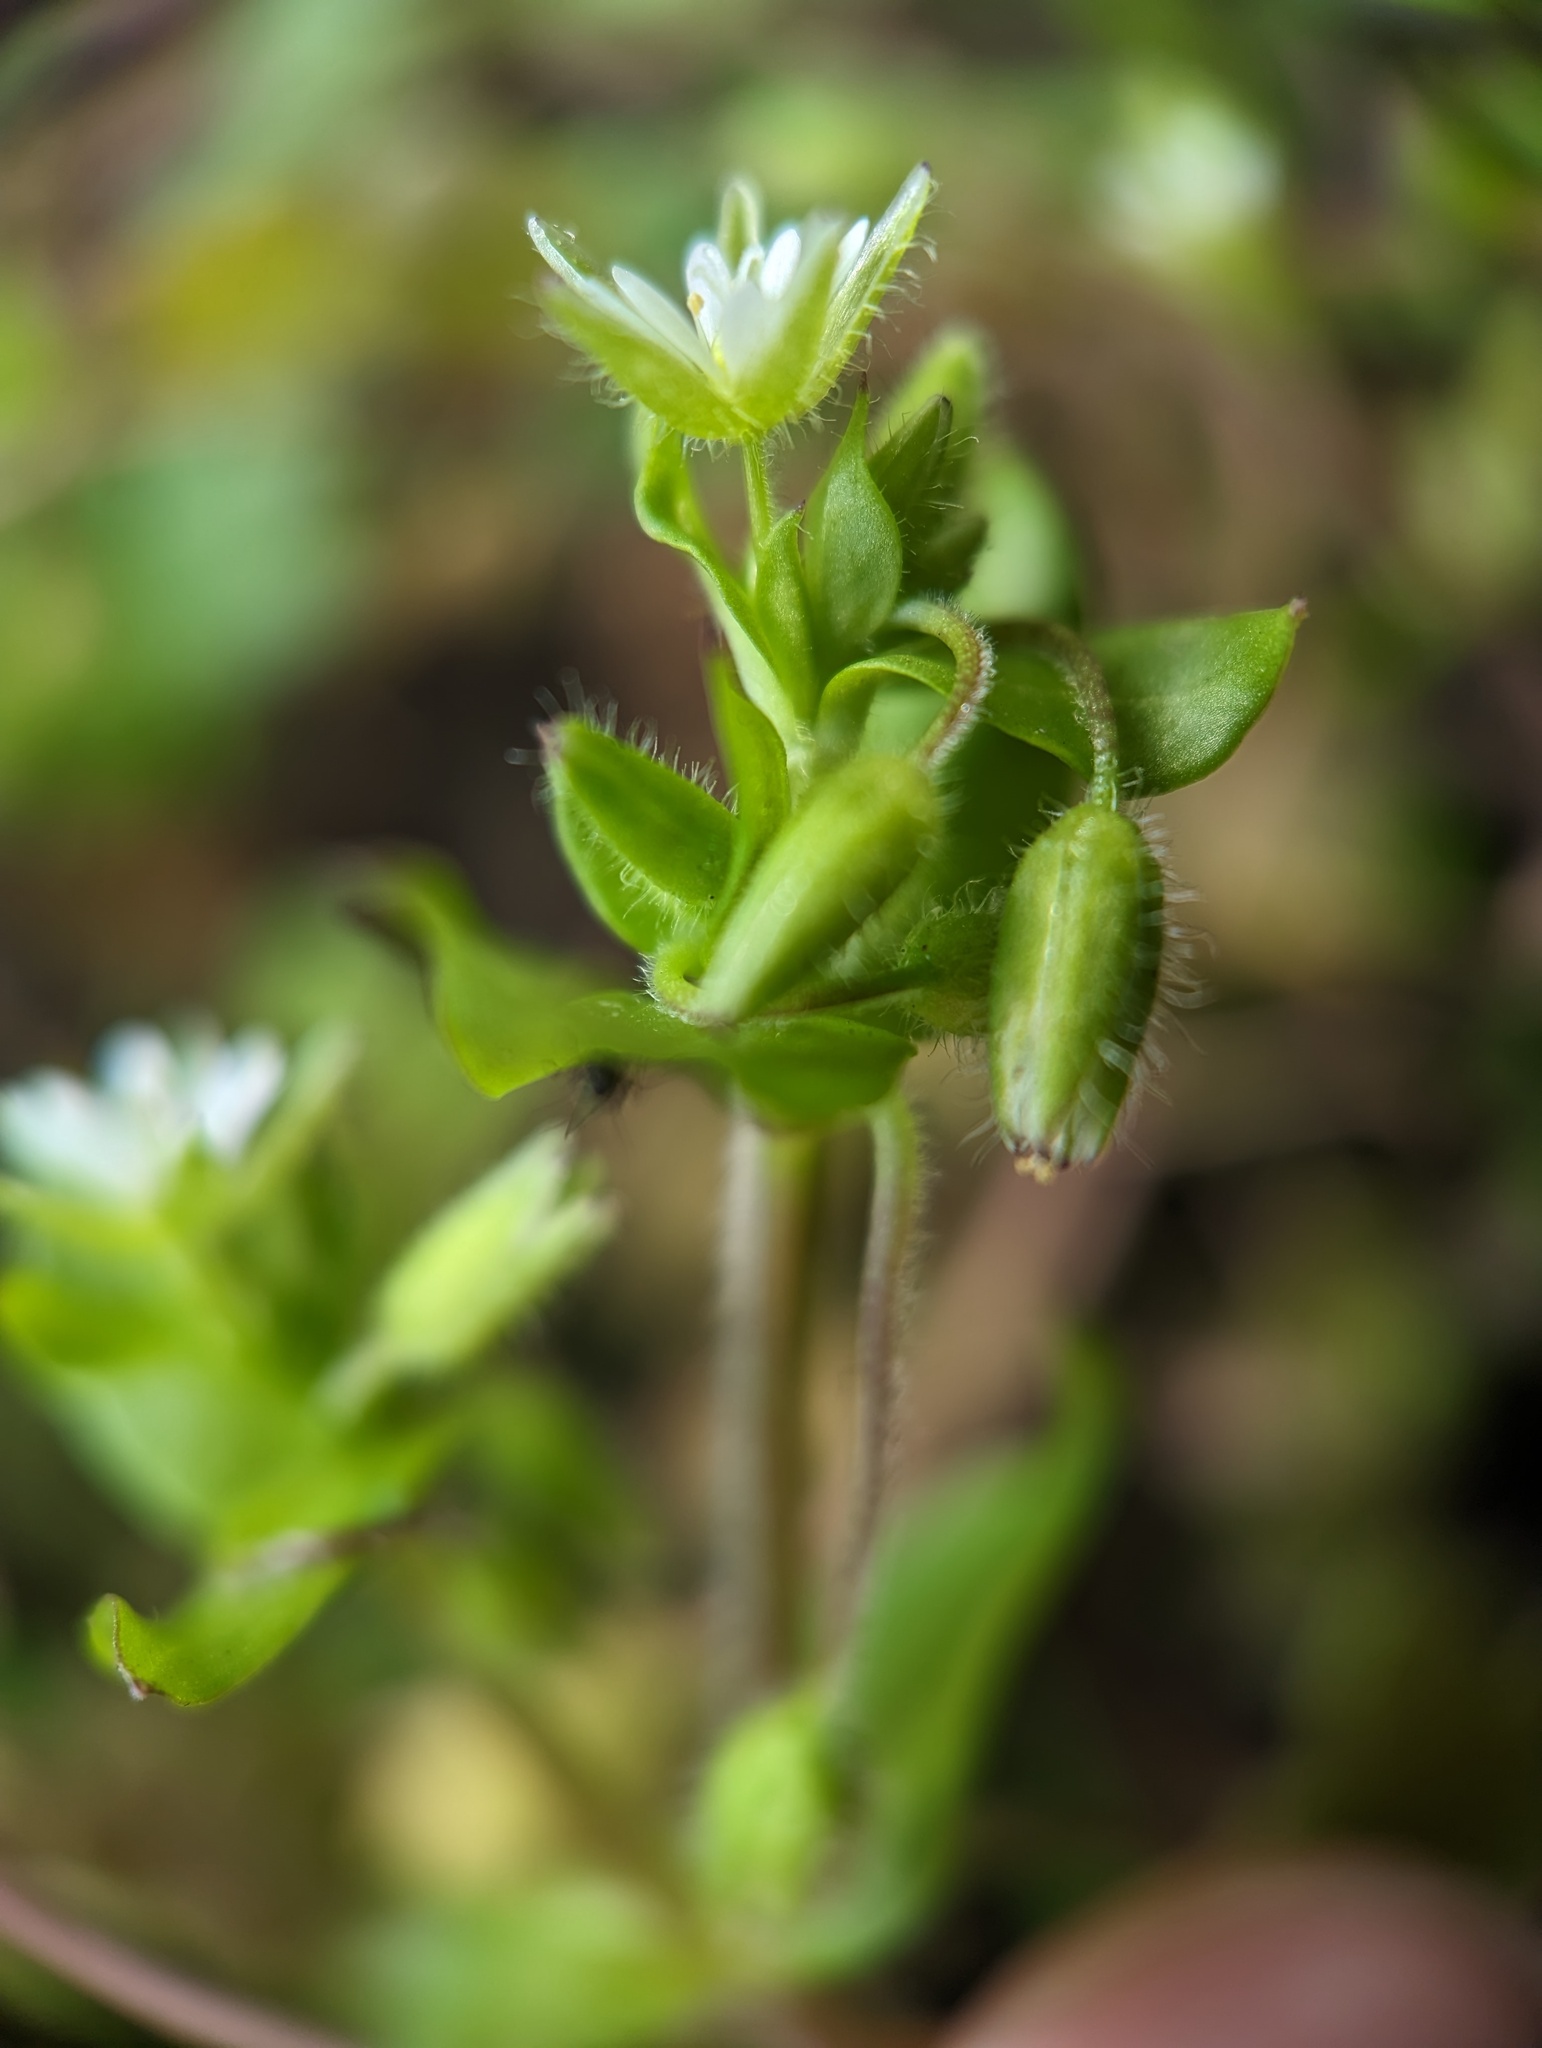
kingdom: Plantae
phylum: Tracheophyta
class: Magnoliopsida
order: Caryophyllales
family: Caryophyllaceae
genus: Stellaria
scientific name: Stellaria media
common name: Common chickweed
